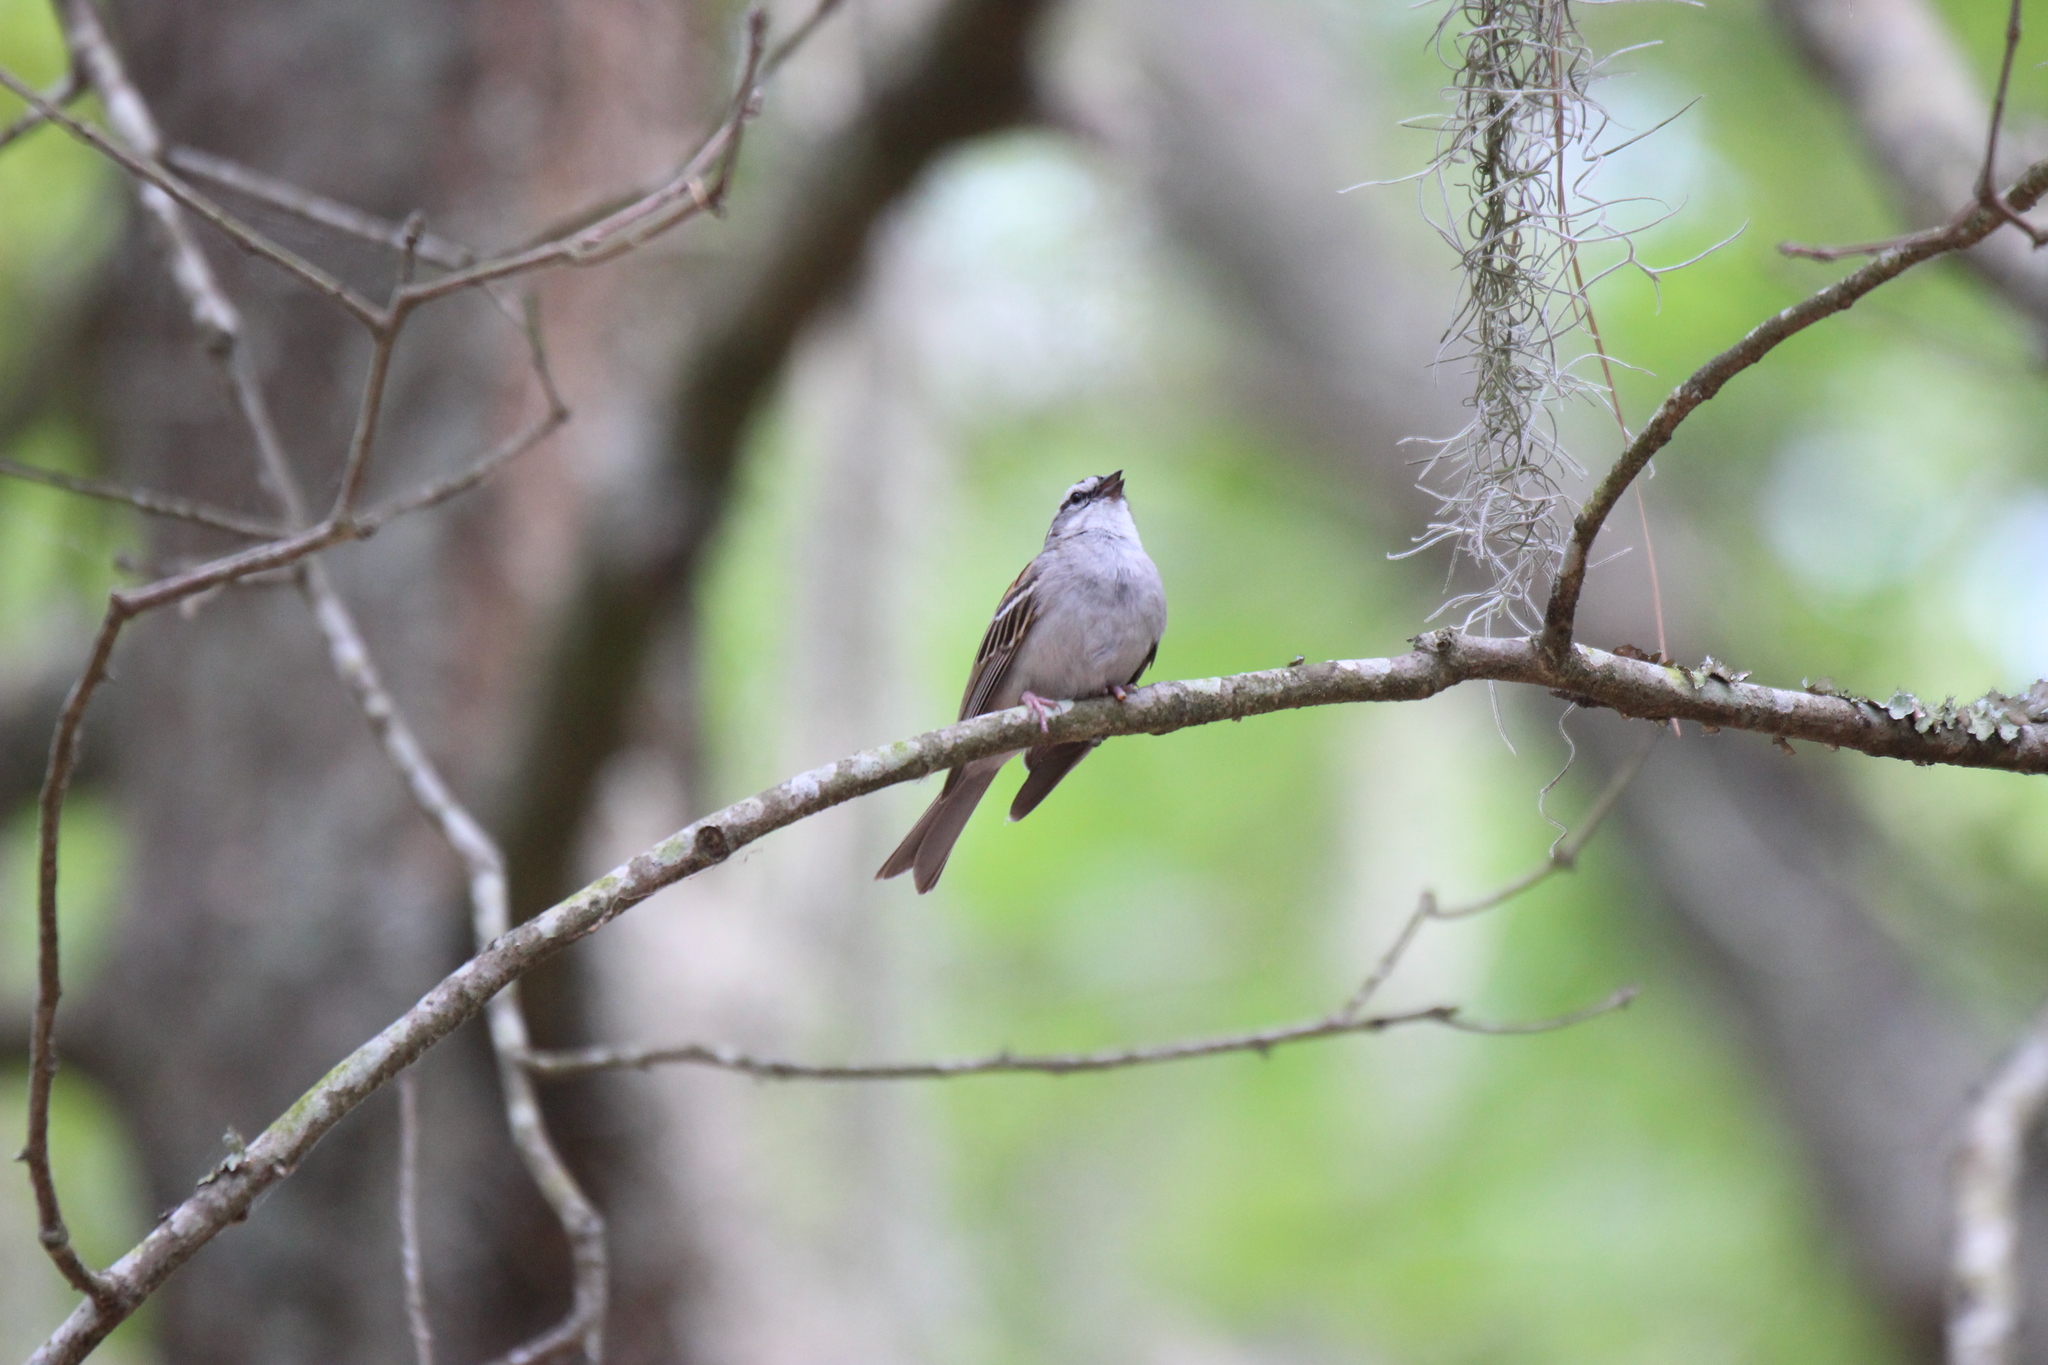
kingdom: Animalia
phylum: Chordata
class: Aves
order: Passeriformes
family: Passerellidae
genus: Spizella
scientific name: Spizella passerina
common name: Chipping sparrow
